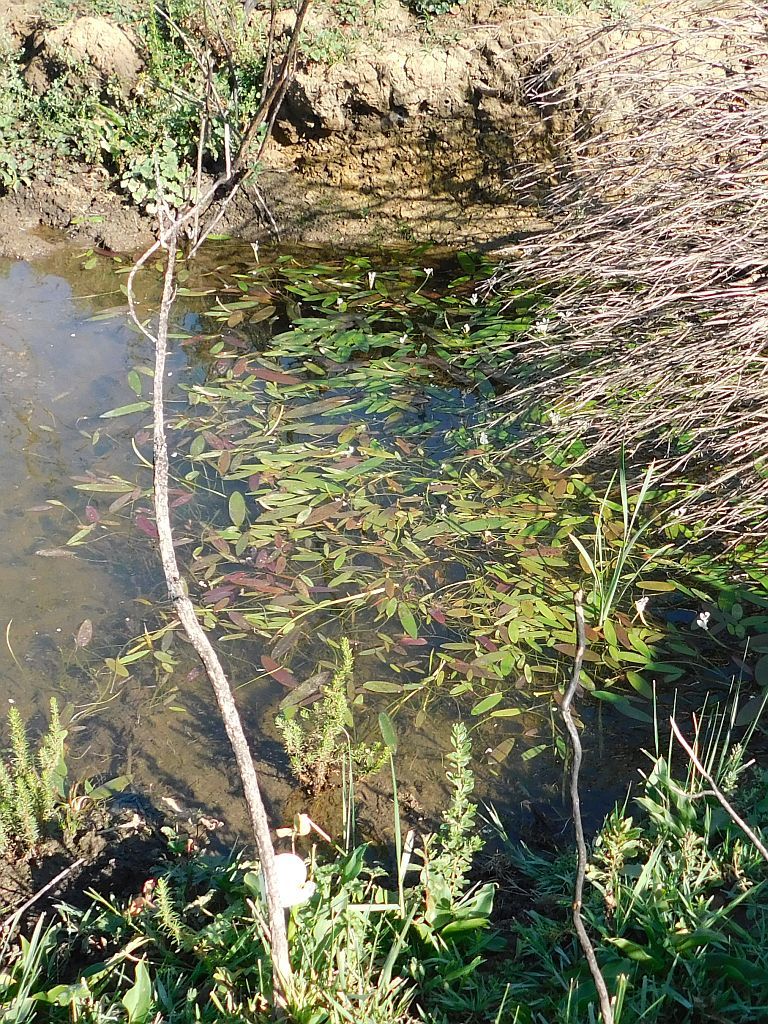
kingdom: Plantae
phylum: Tracheophyta
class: Liliopsida
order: Alismatales
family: Aponogetonaceae
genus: Aponogeton
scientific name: Aponogeton distachyos
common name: Cape-pondweed
